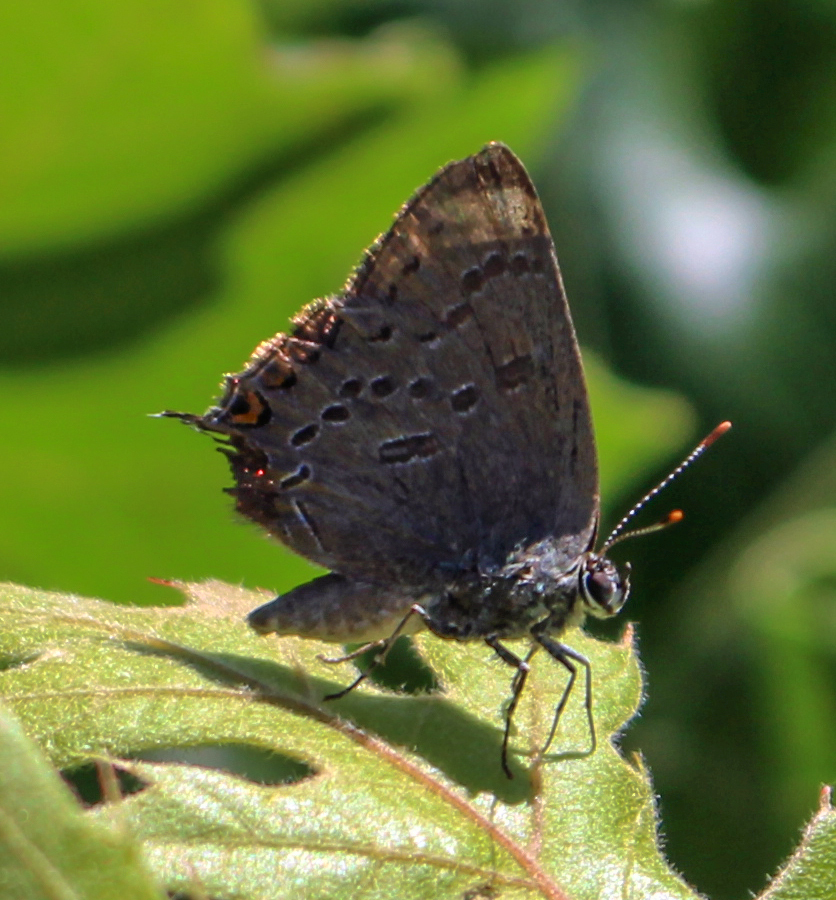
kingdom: Animalia
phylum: Arthropoda
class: Insecta
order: Lepidoptera
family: Lycaenidae
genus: Satyrium
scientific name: Satyrium edwardsii
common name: Edwards' hairstreak
